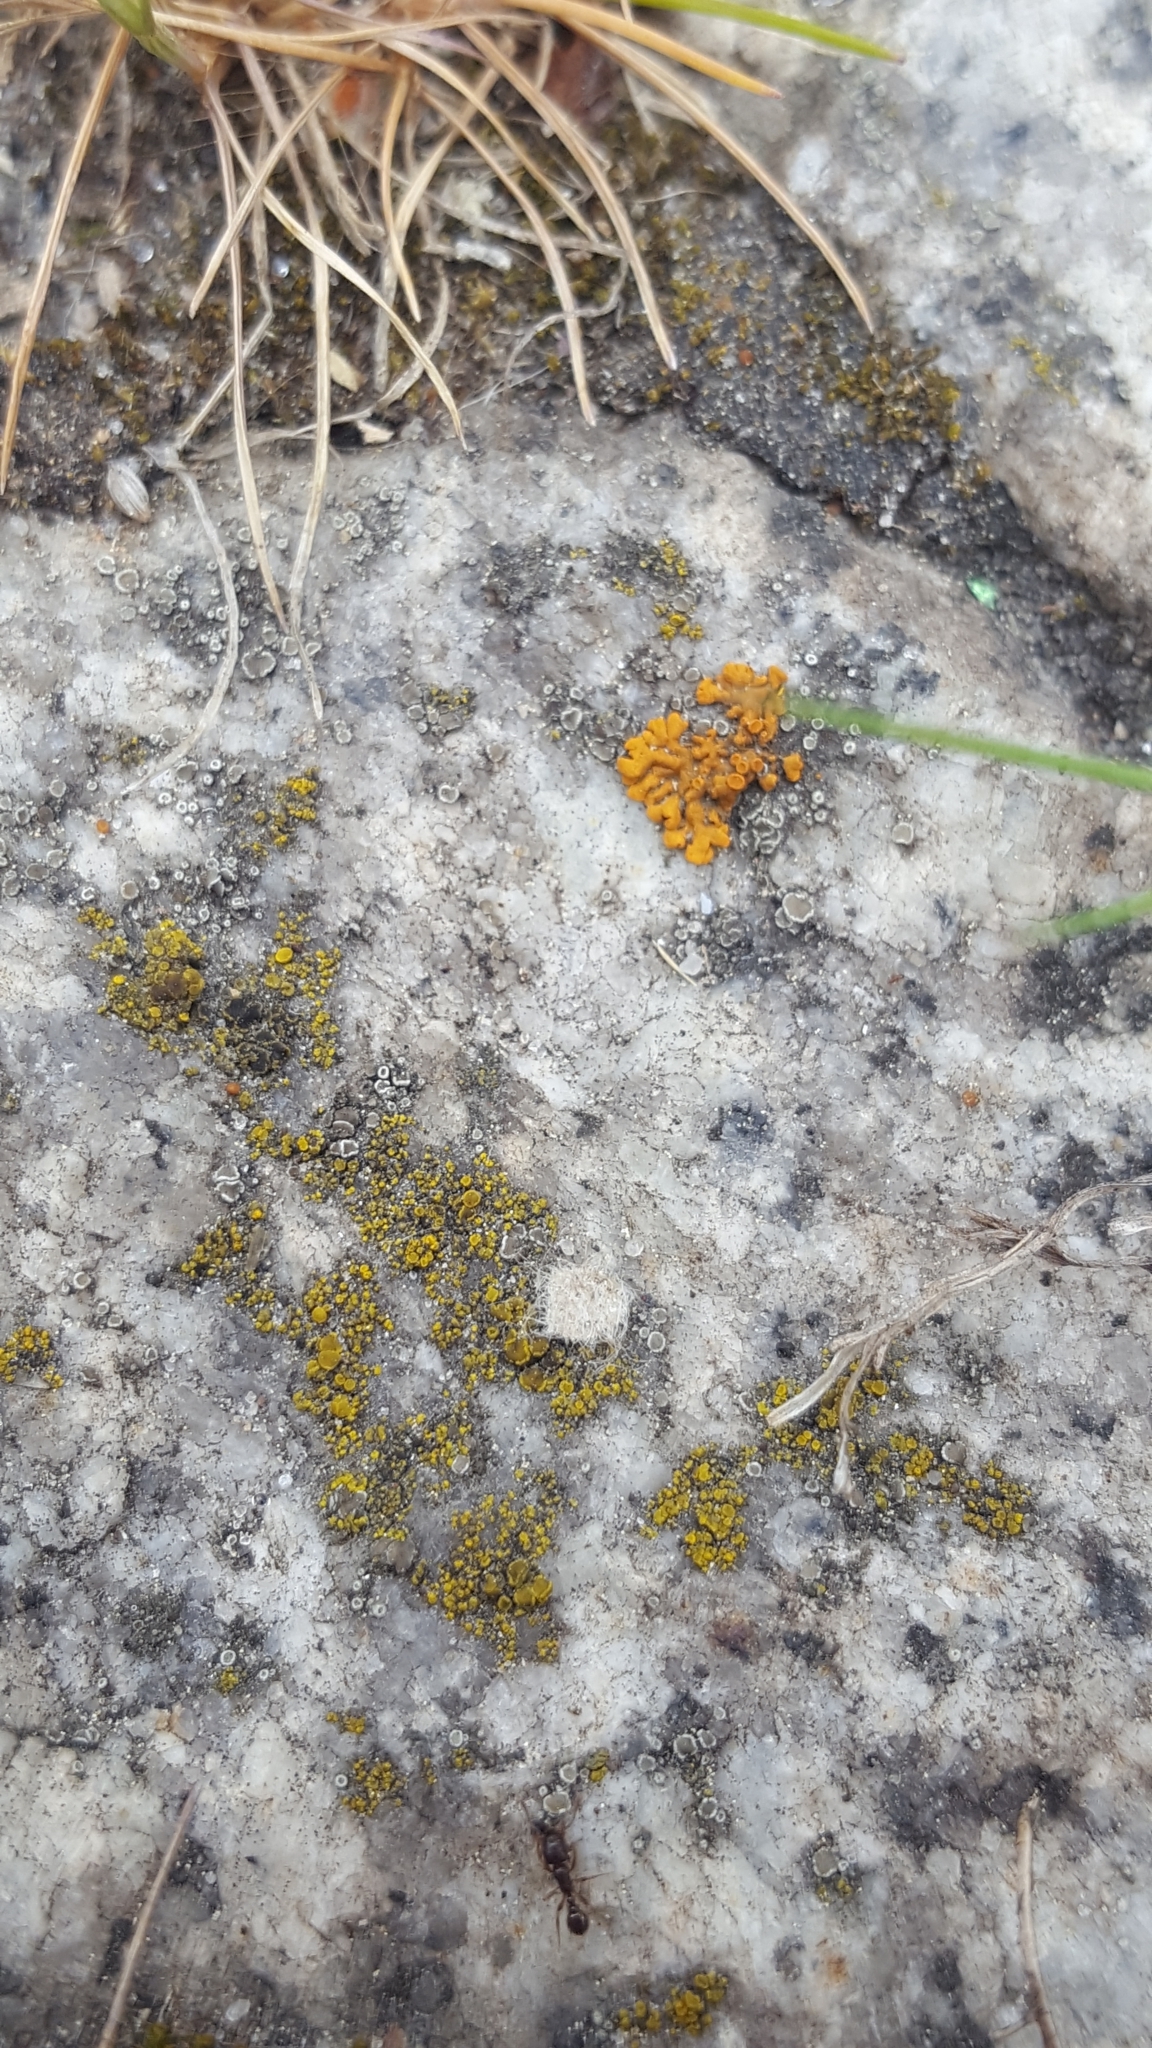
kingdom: Fungi
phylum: Ascomycota
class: Lecanoromycetes
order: Teloschistales
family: Teloschistaceae
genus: Xanthoria
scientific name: Xanthoria elegans
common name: Elegant sunburst lichen
